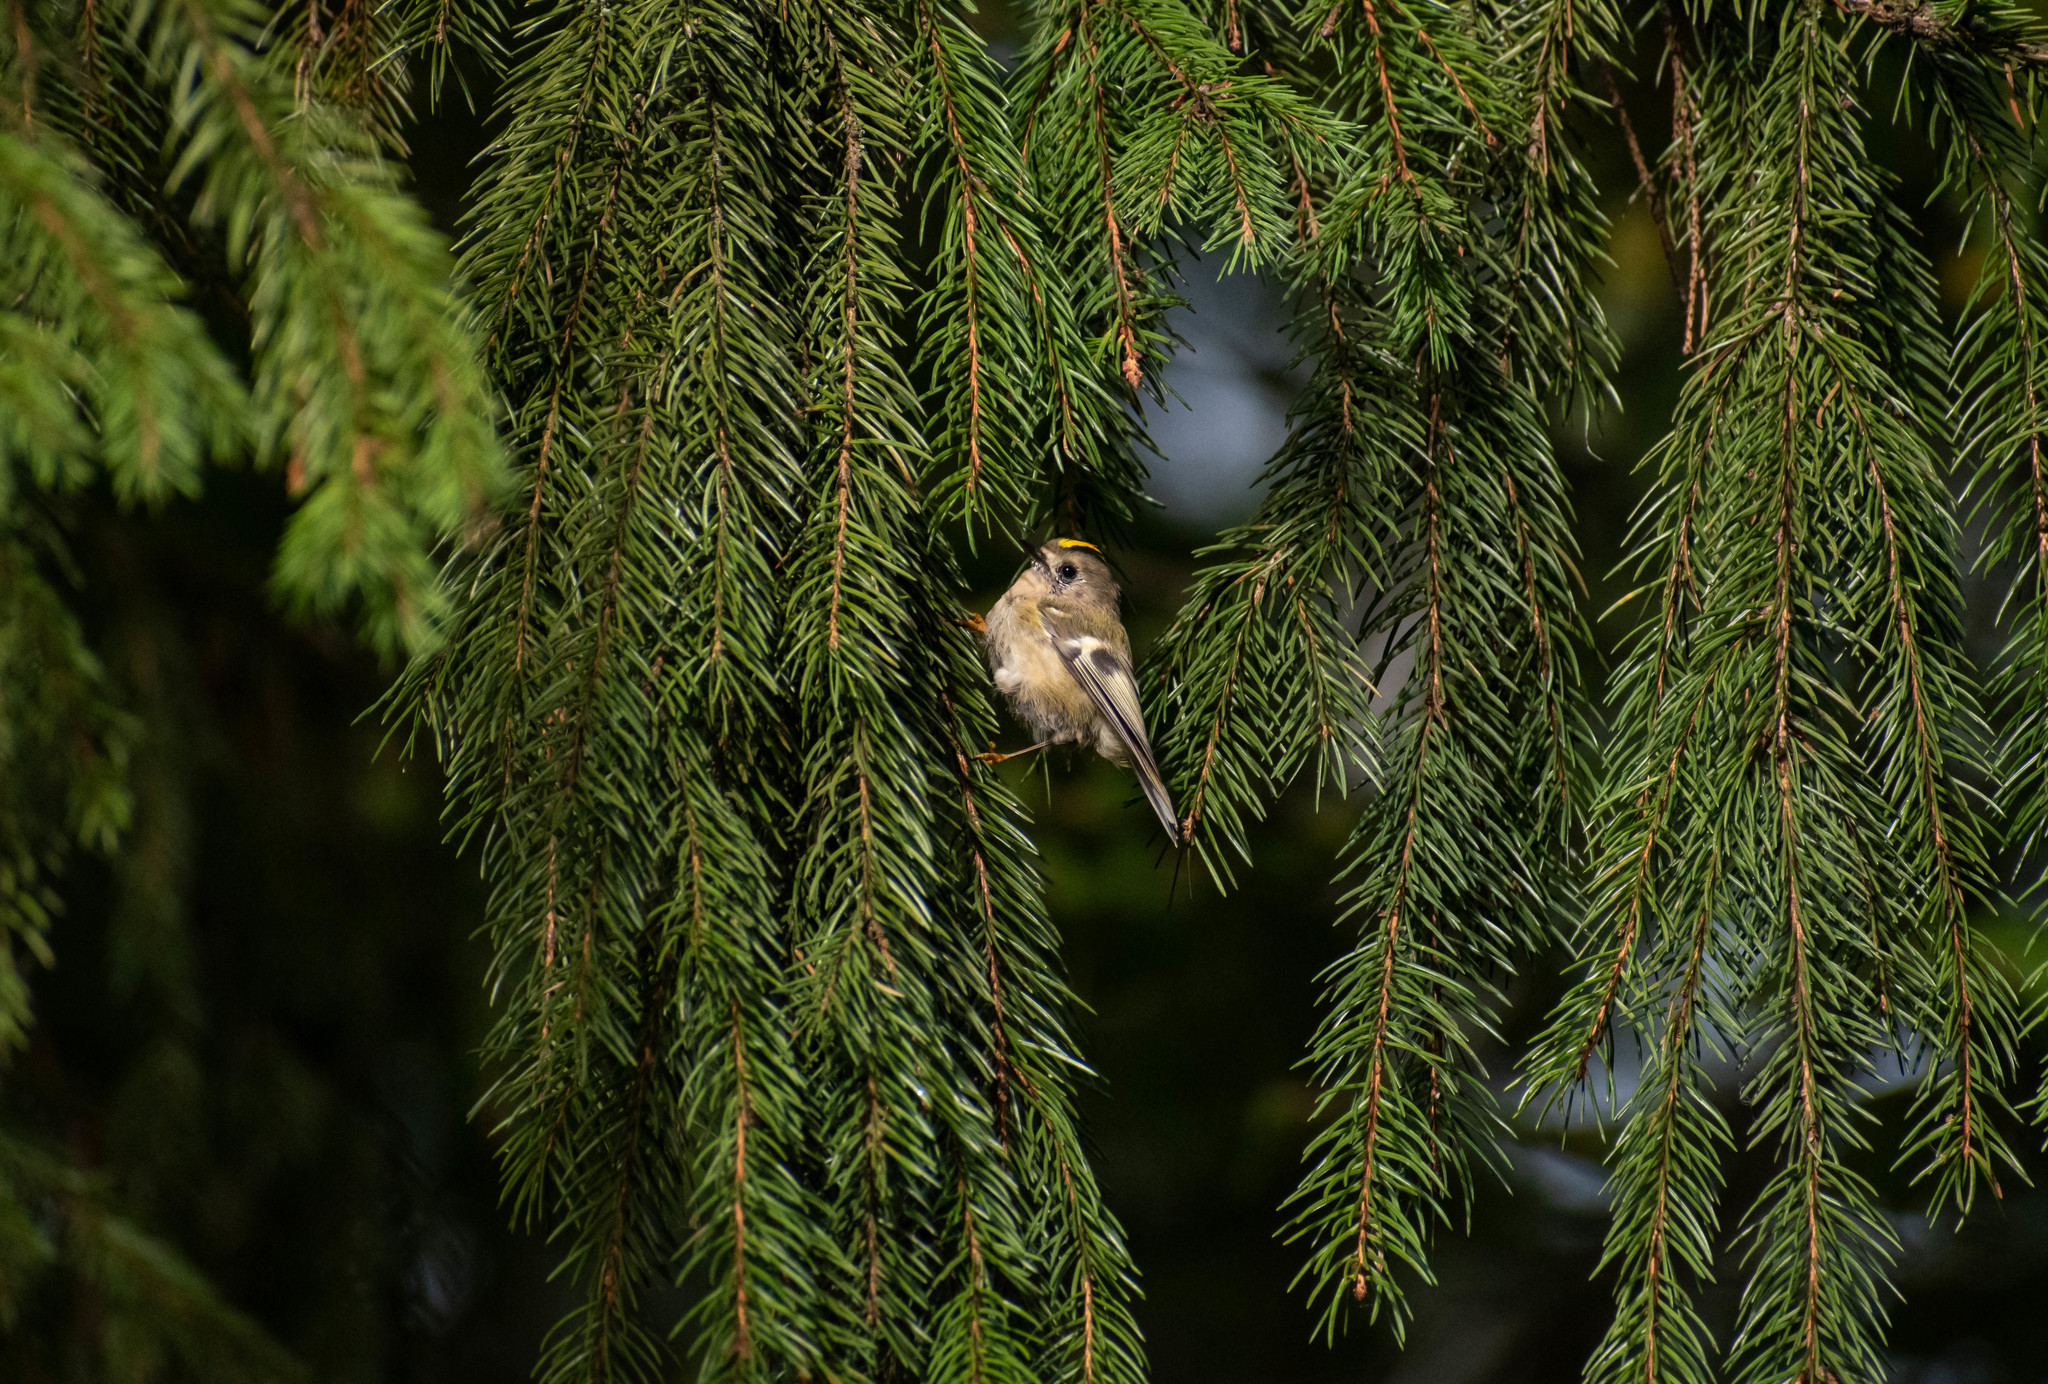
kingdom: Animalia
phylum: Chordata
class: Aves
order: Passeriformes
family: Regulidae
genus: Regulus
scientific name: Regulus regulus
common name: Goldcrest
